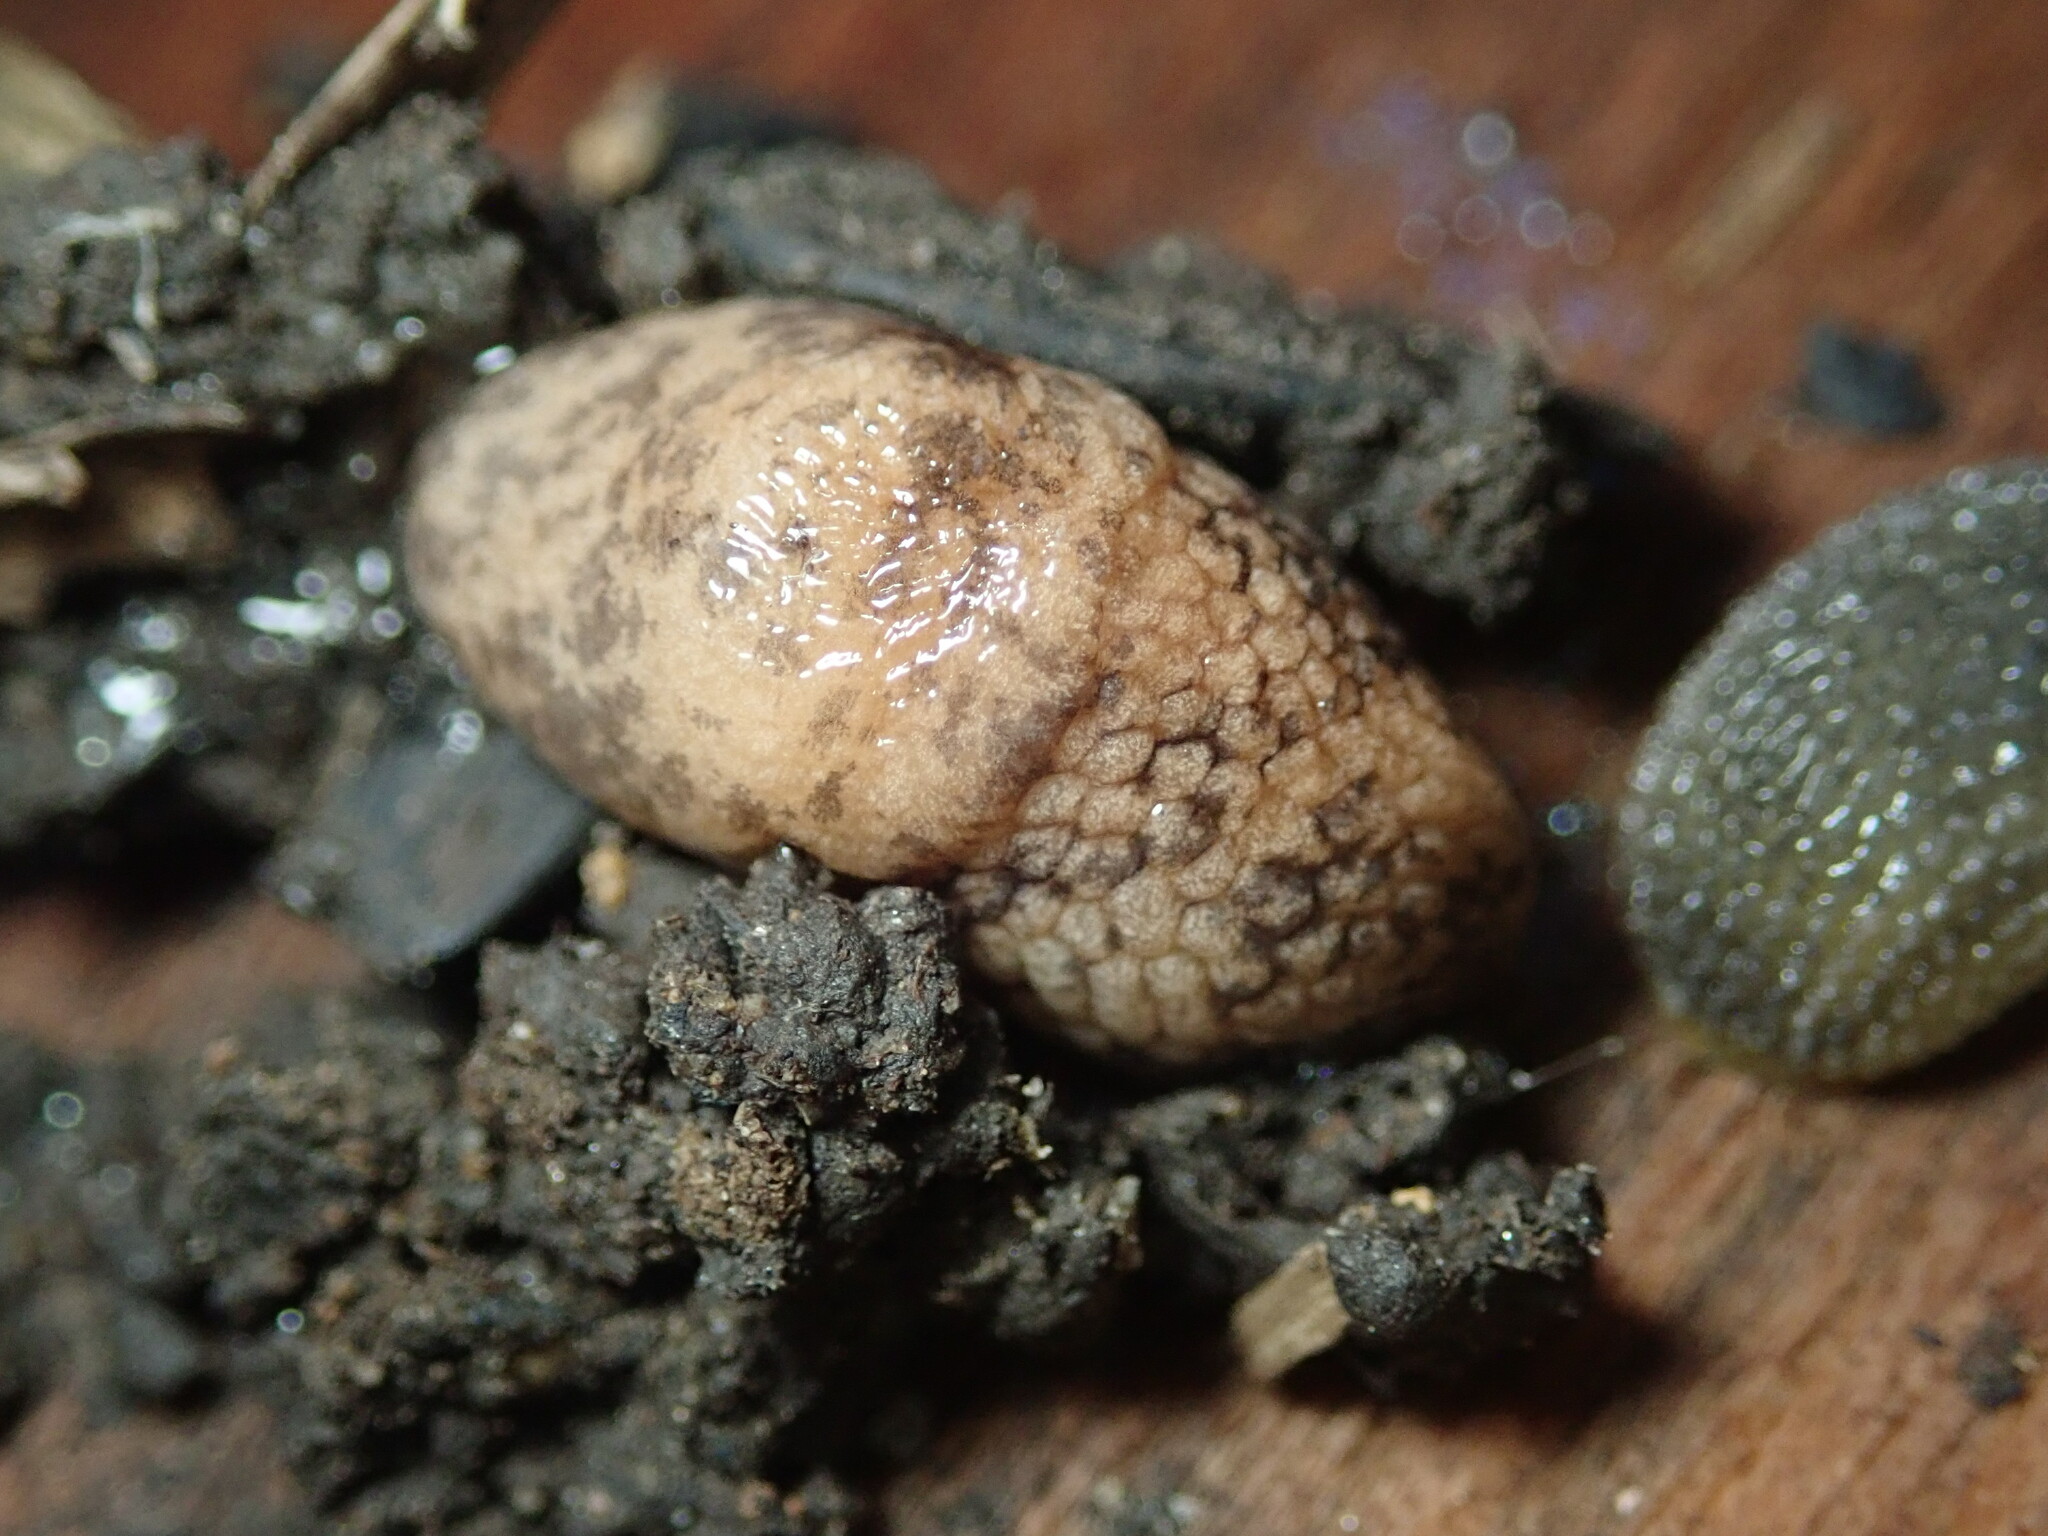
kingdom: Animalia
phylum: Mollusca
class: Gastropoda
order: Stylommatophora
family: Agriolimacidae
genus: Deroceras
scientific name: Deroceras reticulatum
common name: Gray field slug
